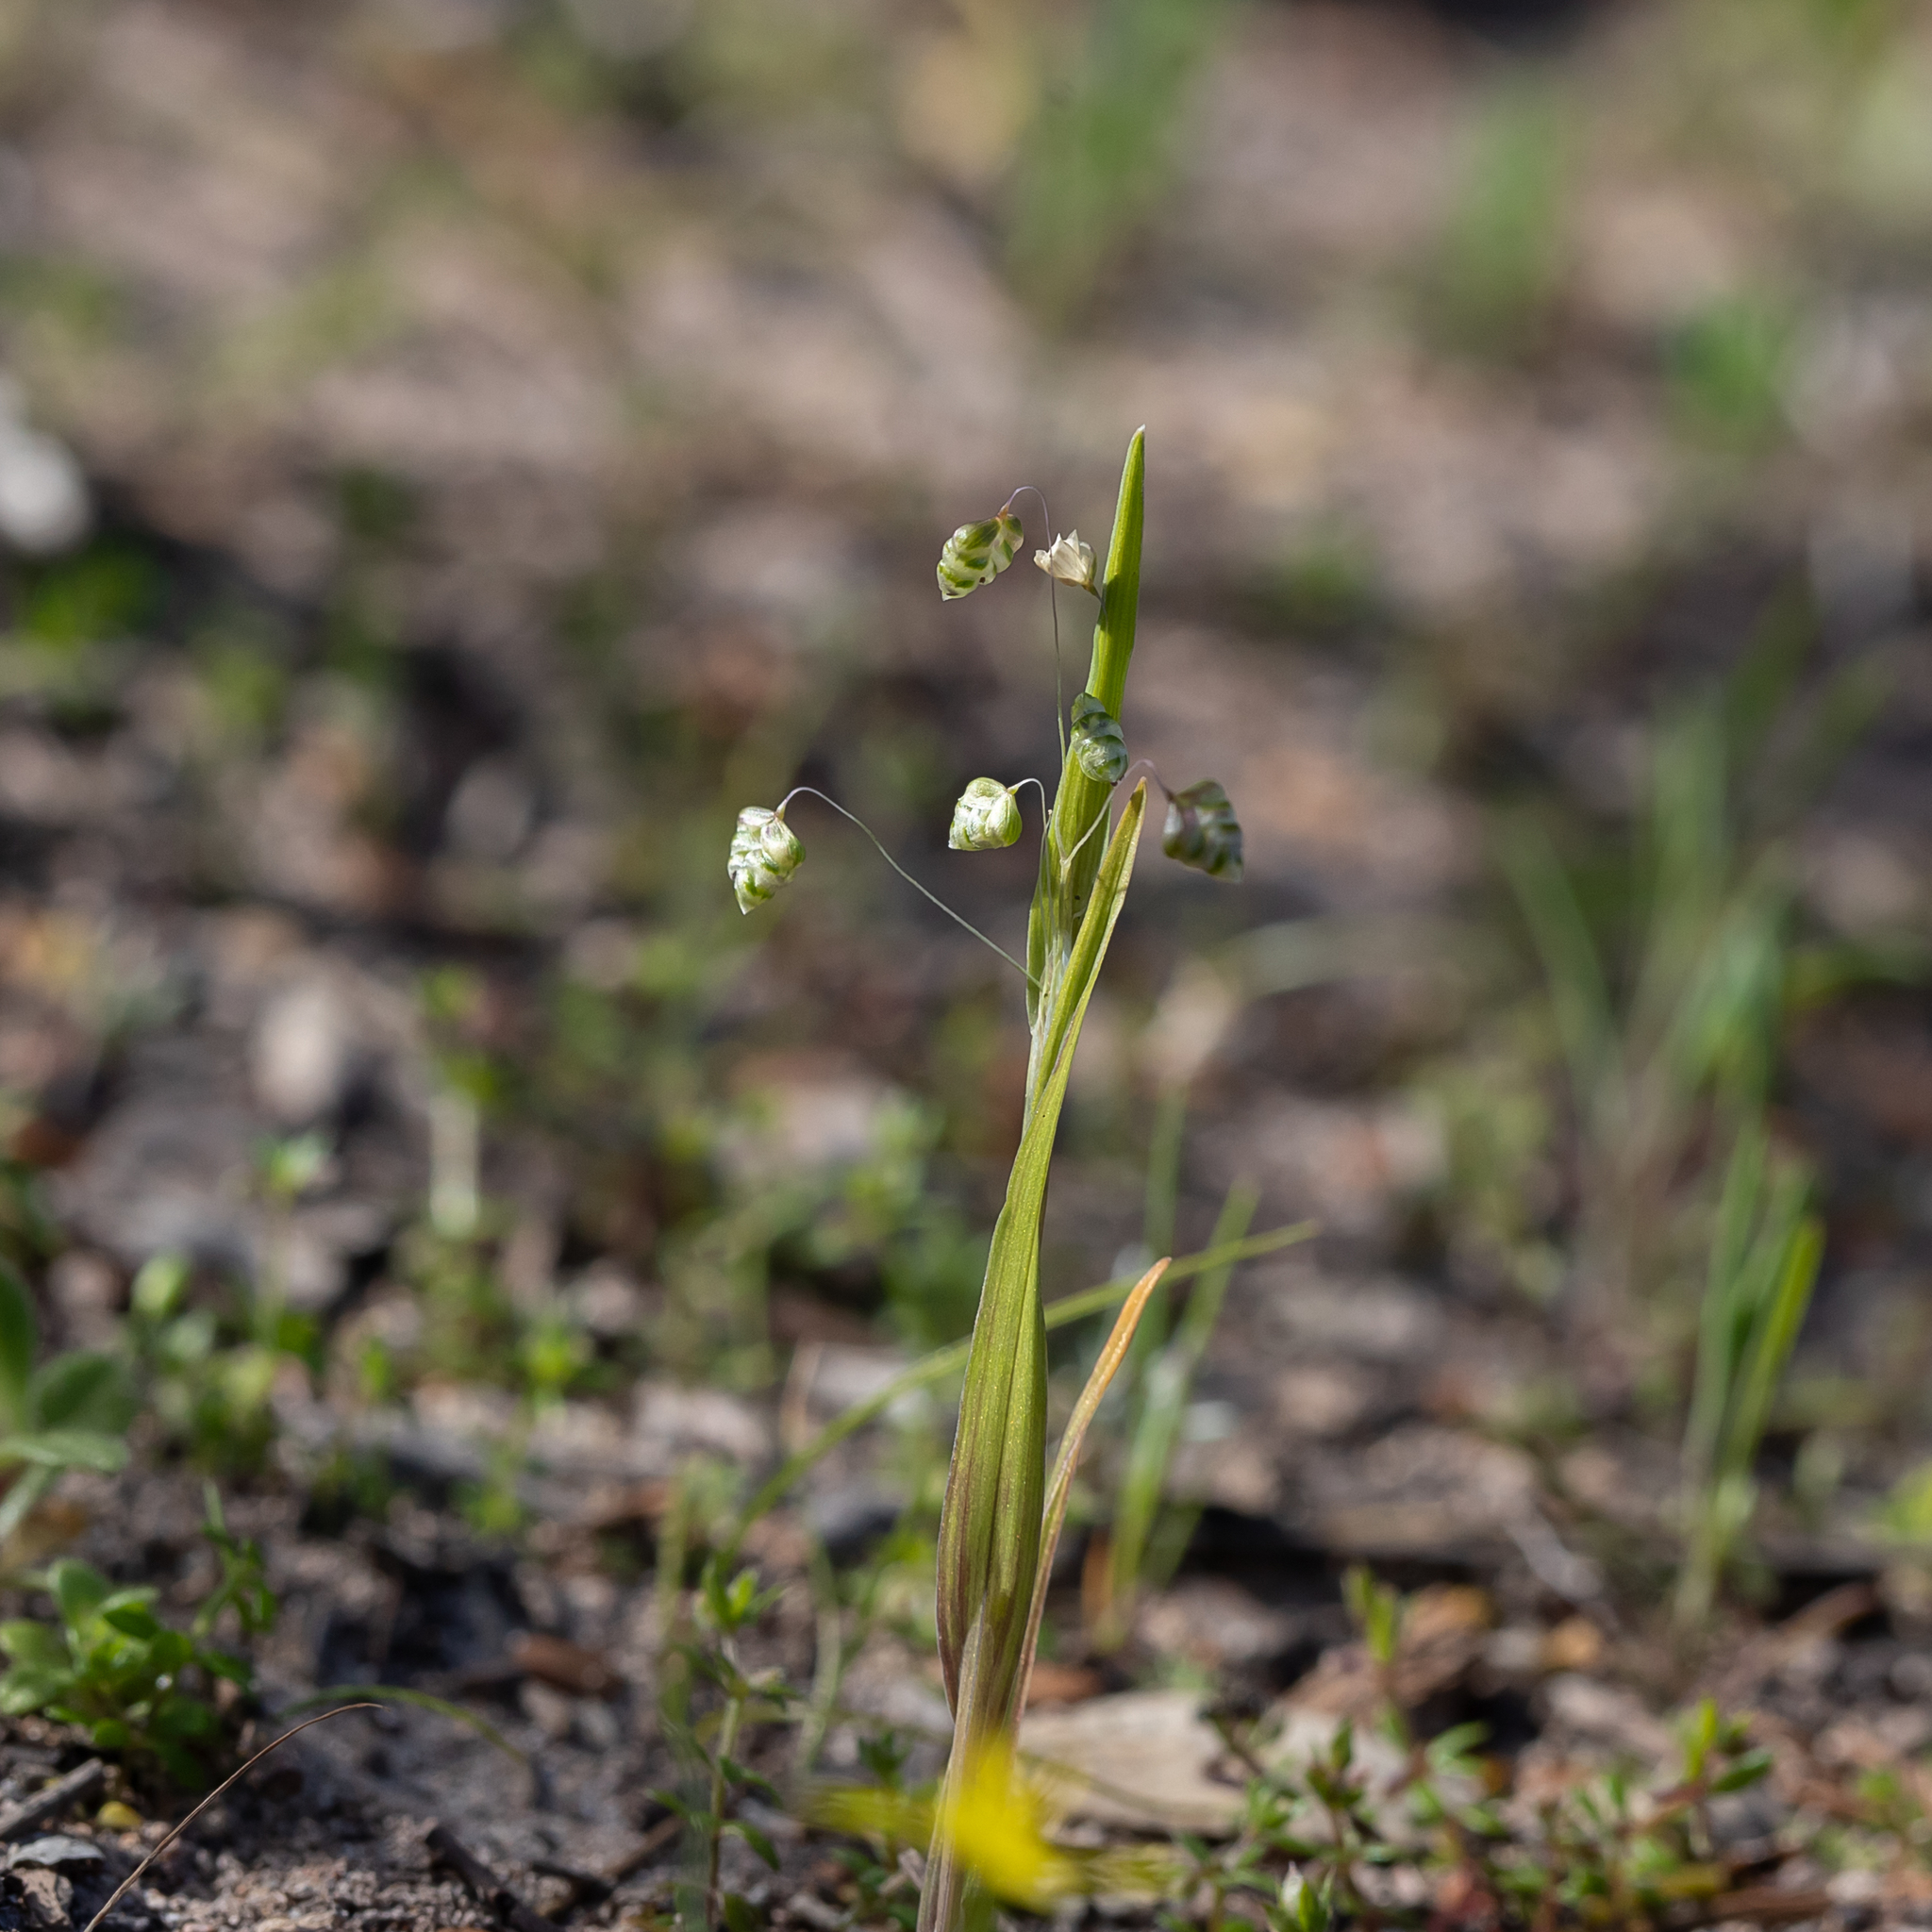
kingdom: Plantae
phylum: Tracheophyta
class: Liliopsida
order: Poales
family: Poaceae
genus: Briza
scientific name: Briza minor
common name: Lesser quaking-grass
